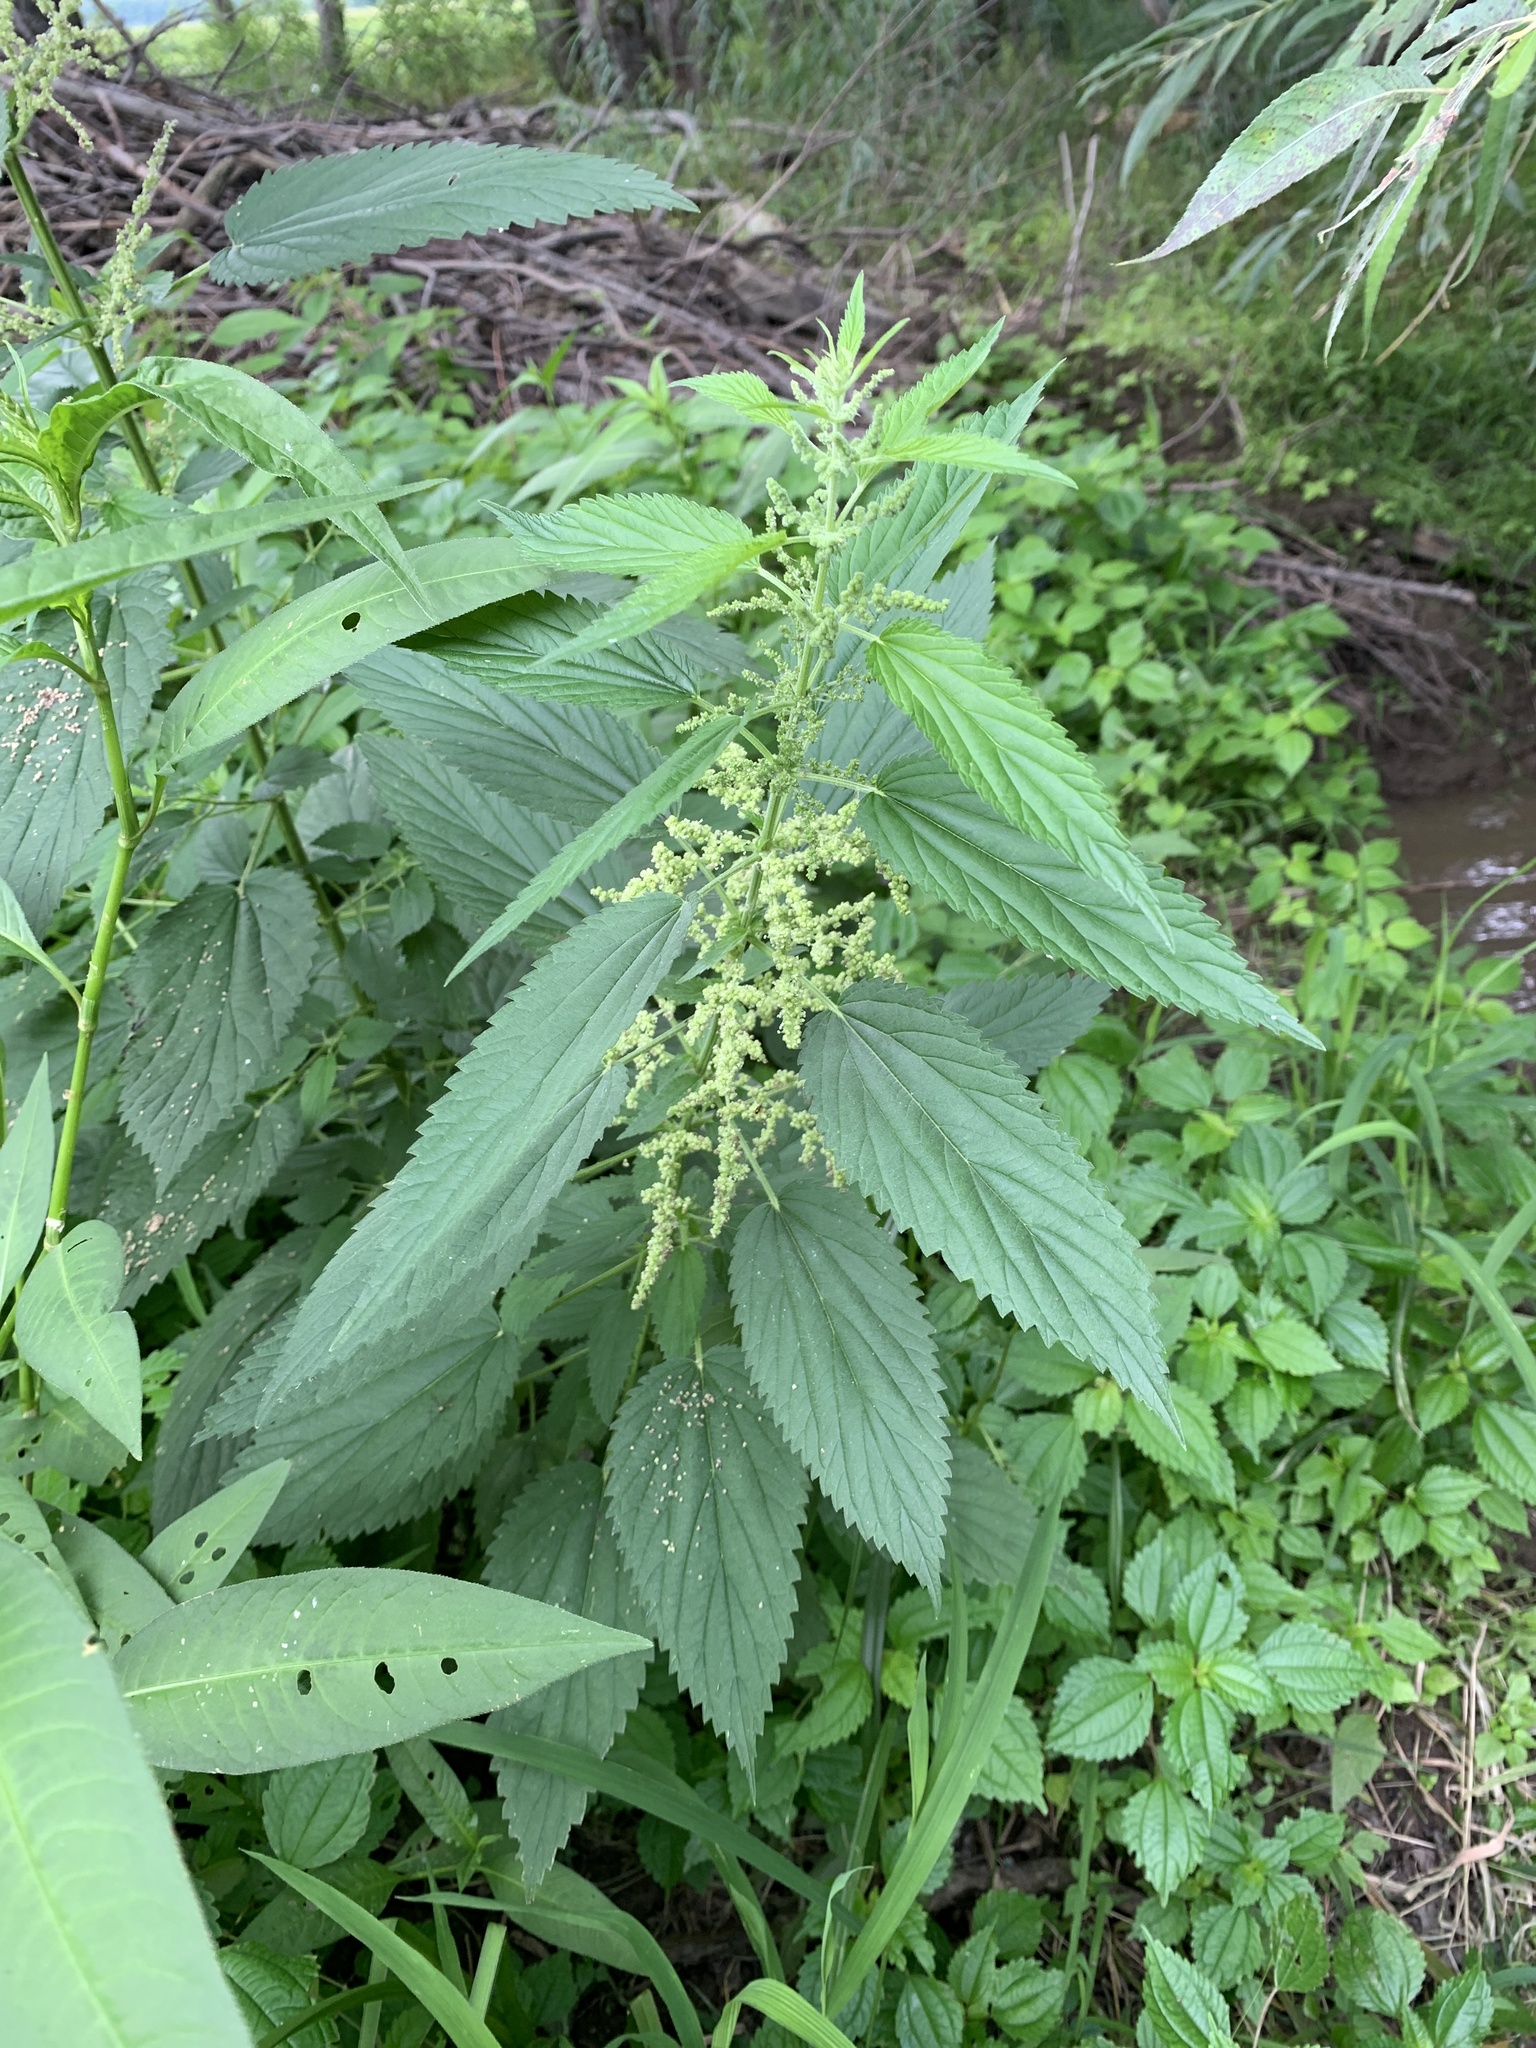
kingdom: Plantae
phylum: Tracheophyta
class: Magnoliopsida
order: Rosales
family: Urticaceae
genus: Urtica
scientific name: Urtica dioica
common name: Common nettle
